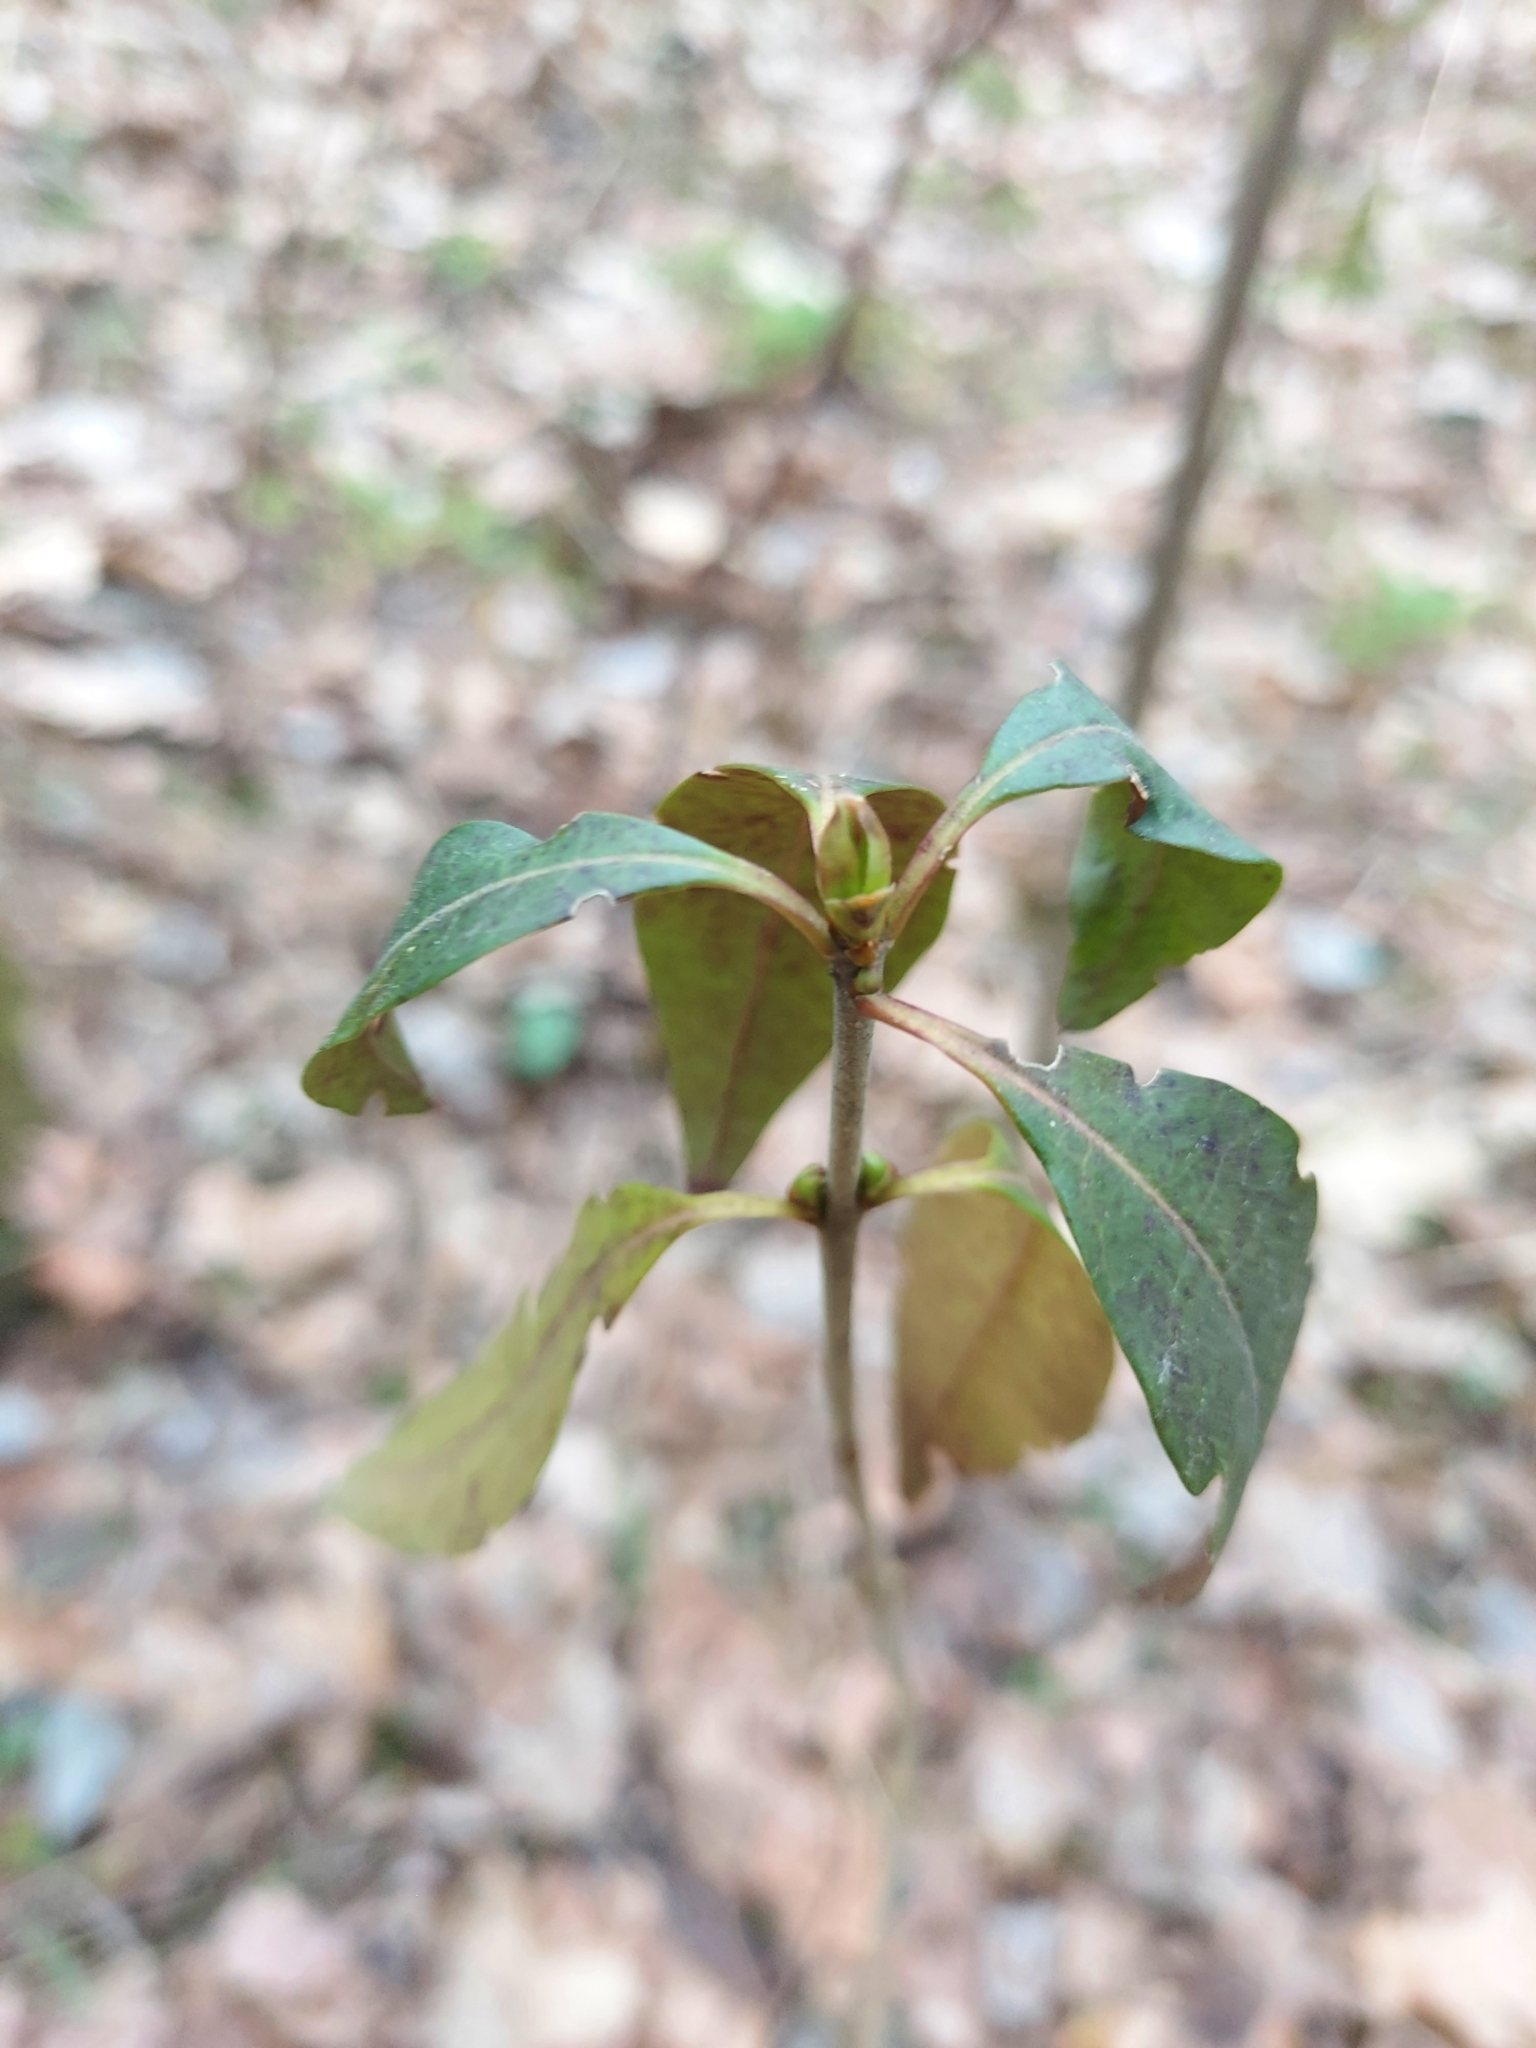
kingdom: Plantae
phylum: Tracheophyta
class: Magnoliopsida
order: Lamiales
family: Oleaceae
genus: Ligustrum
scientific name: Ligustrum vulgare
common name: Wild privet
